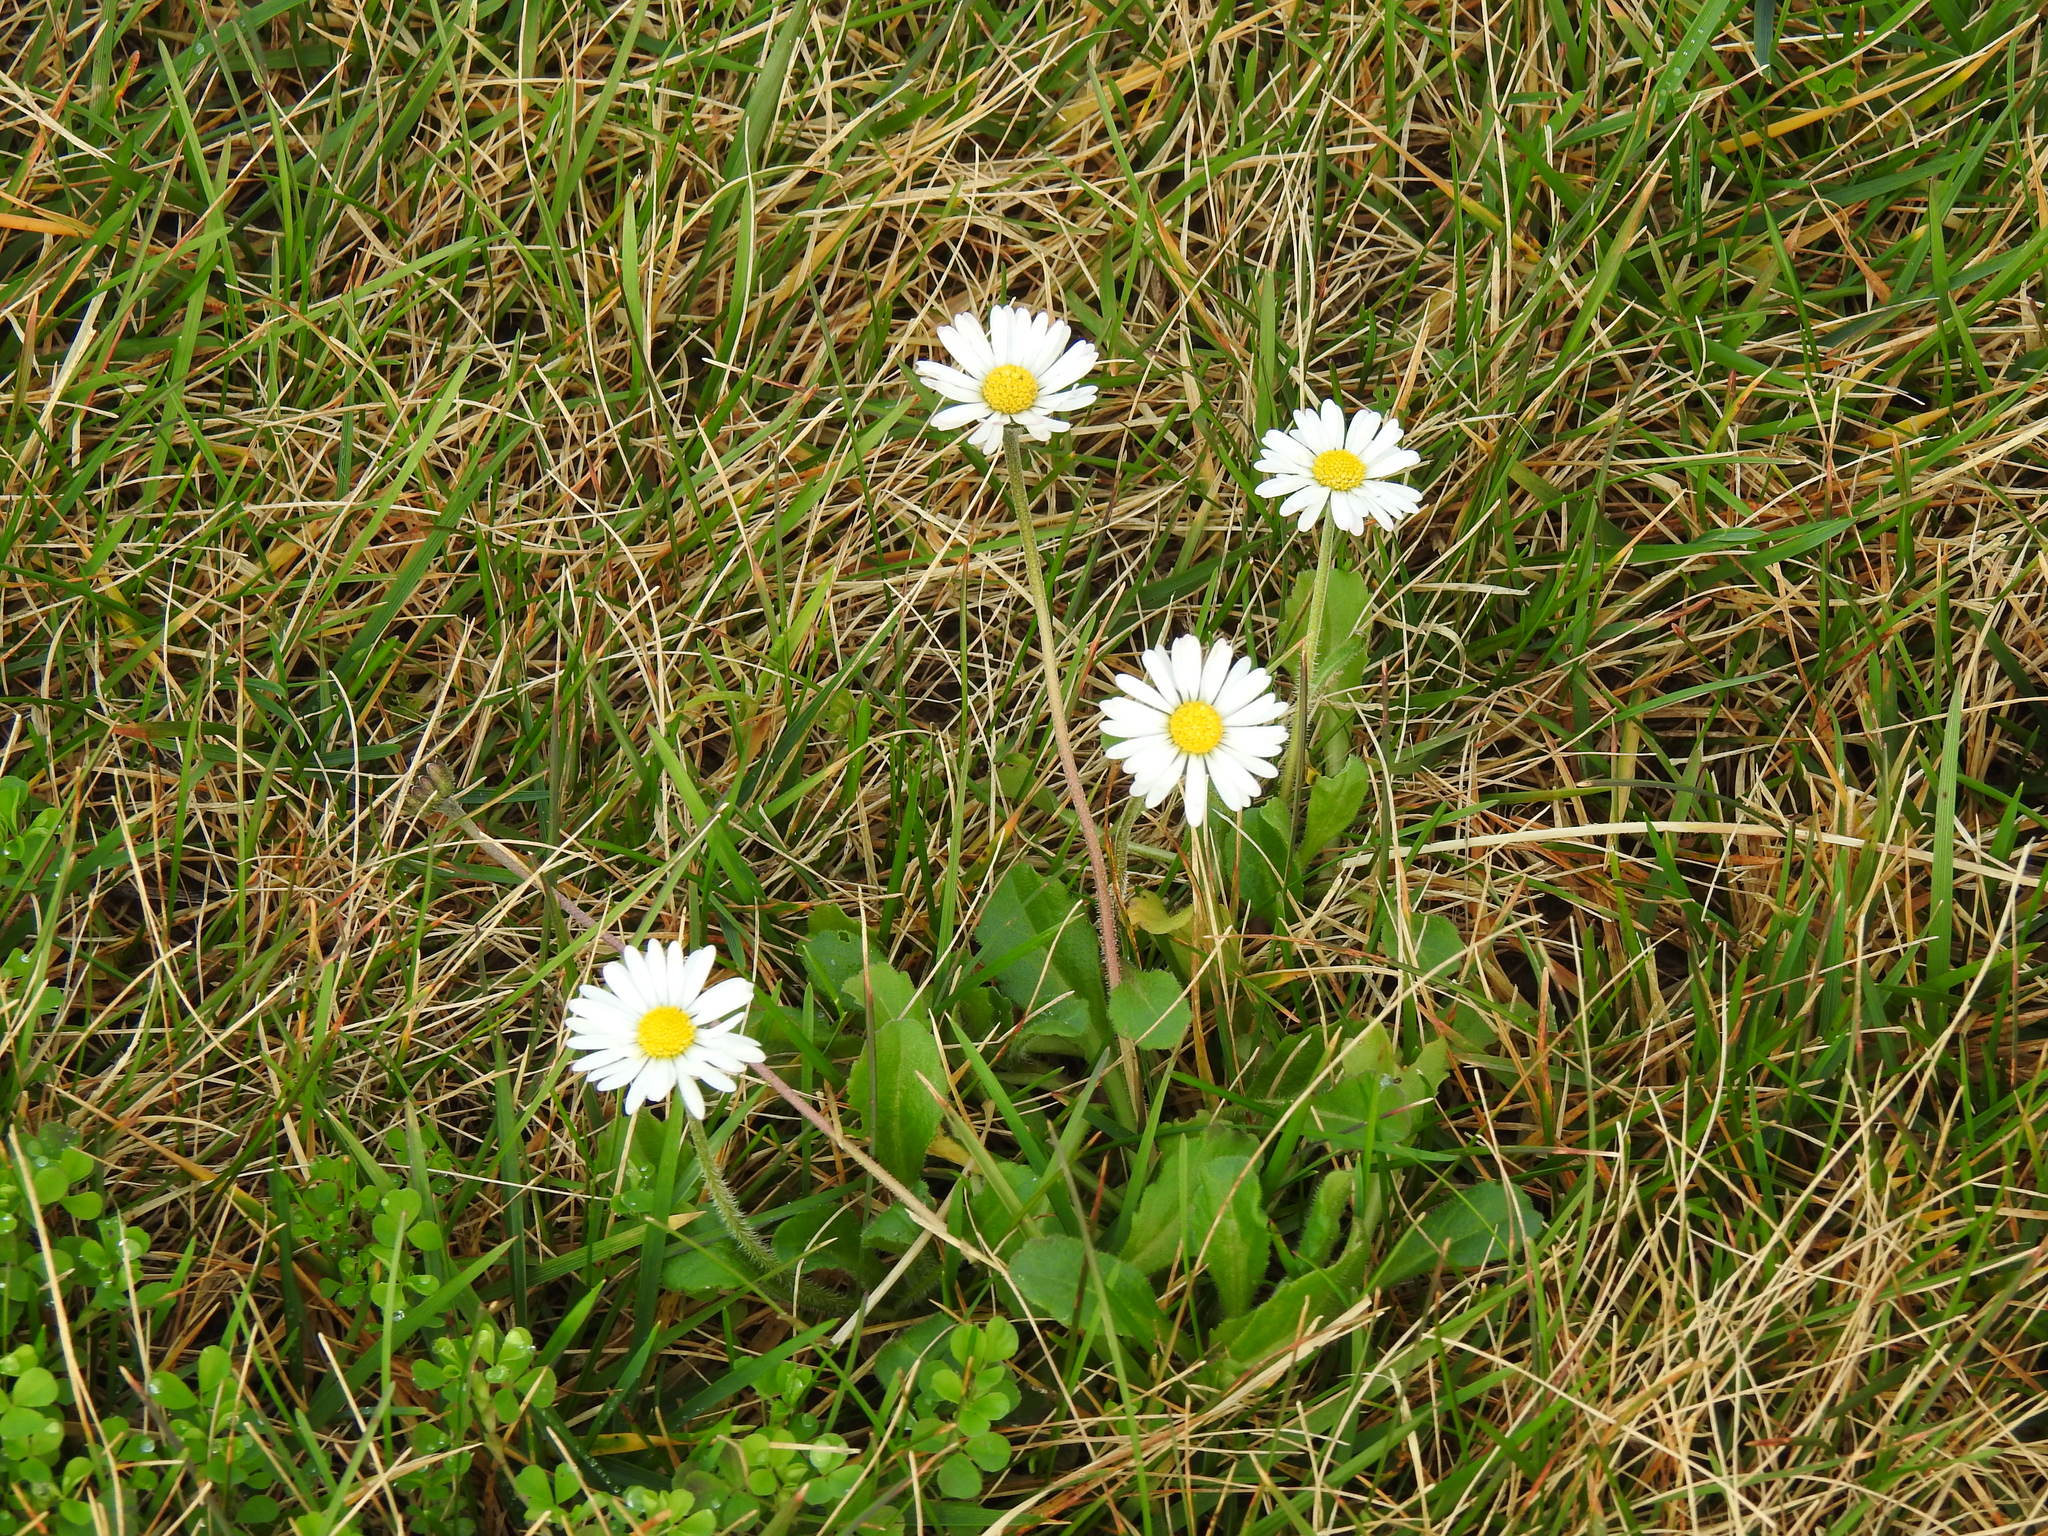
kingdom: Plantae
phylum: Tracheophyta
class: Magnoliopsida
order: Asterales
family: Asteraceae
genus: Bellis
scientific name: Bellis perennis
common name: Lawndaisy
